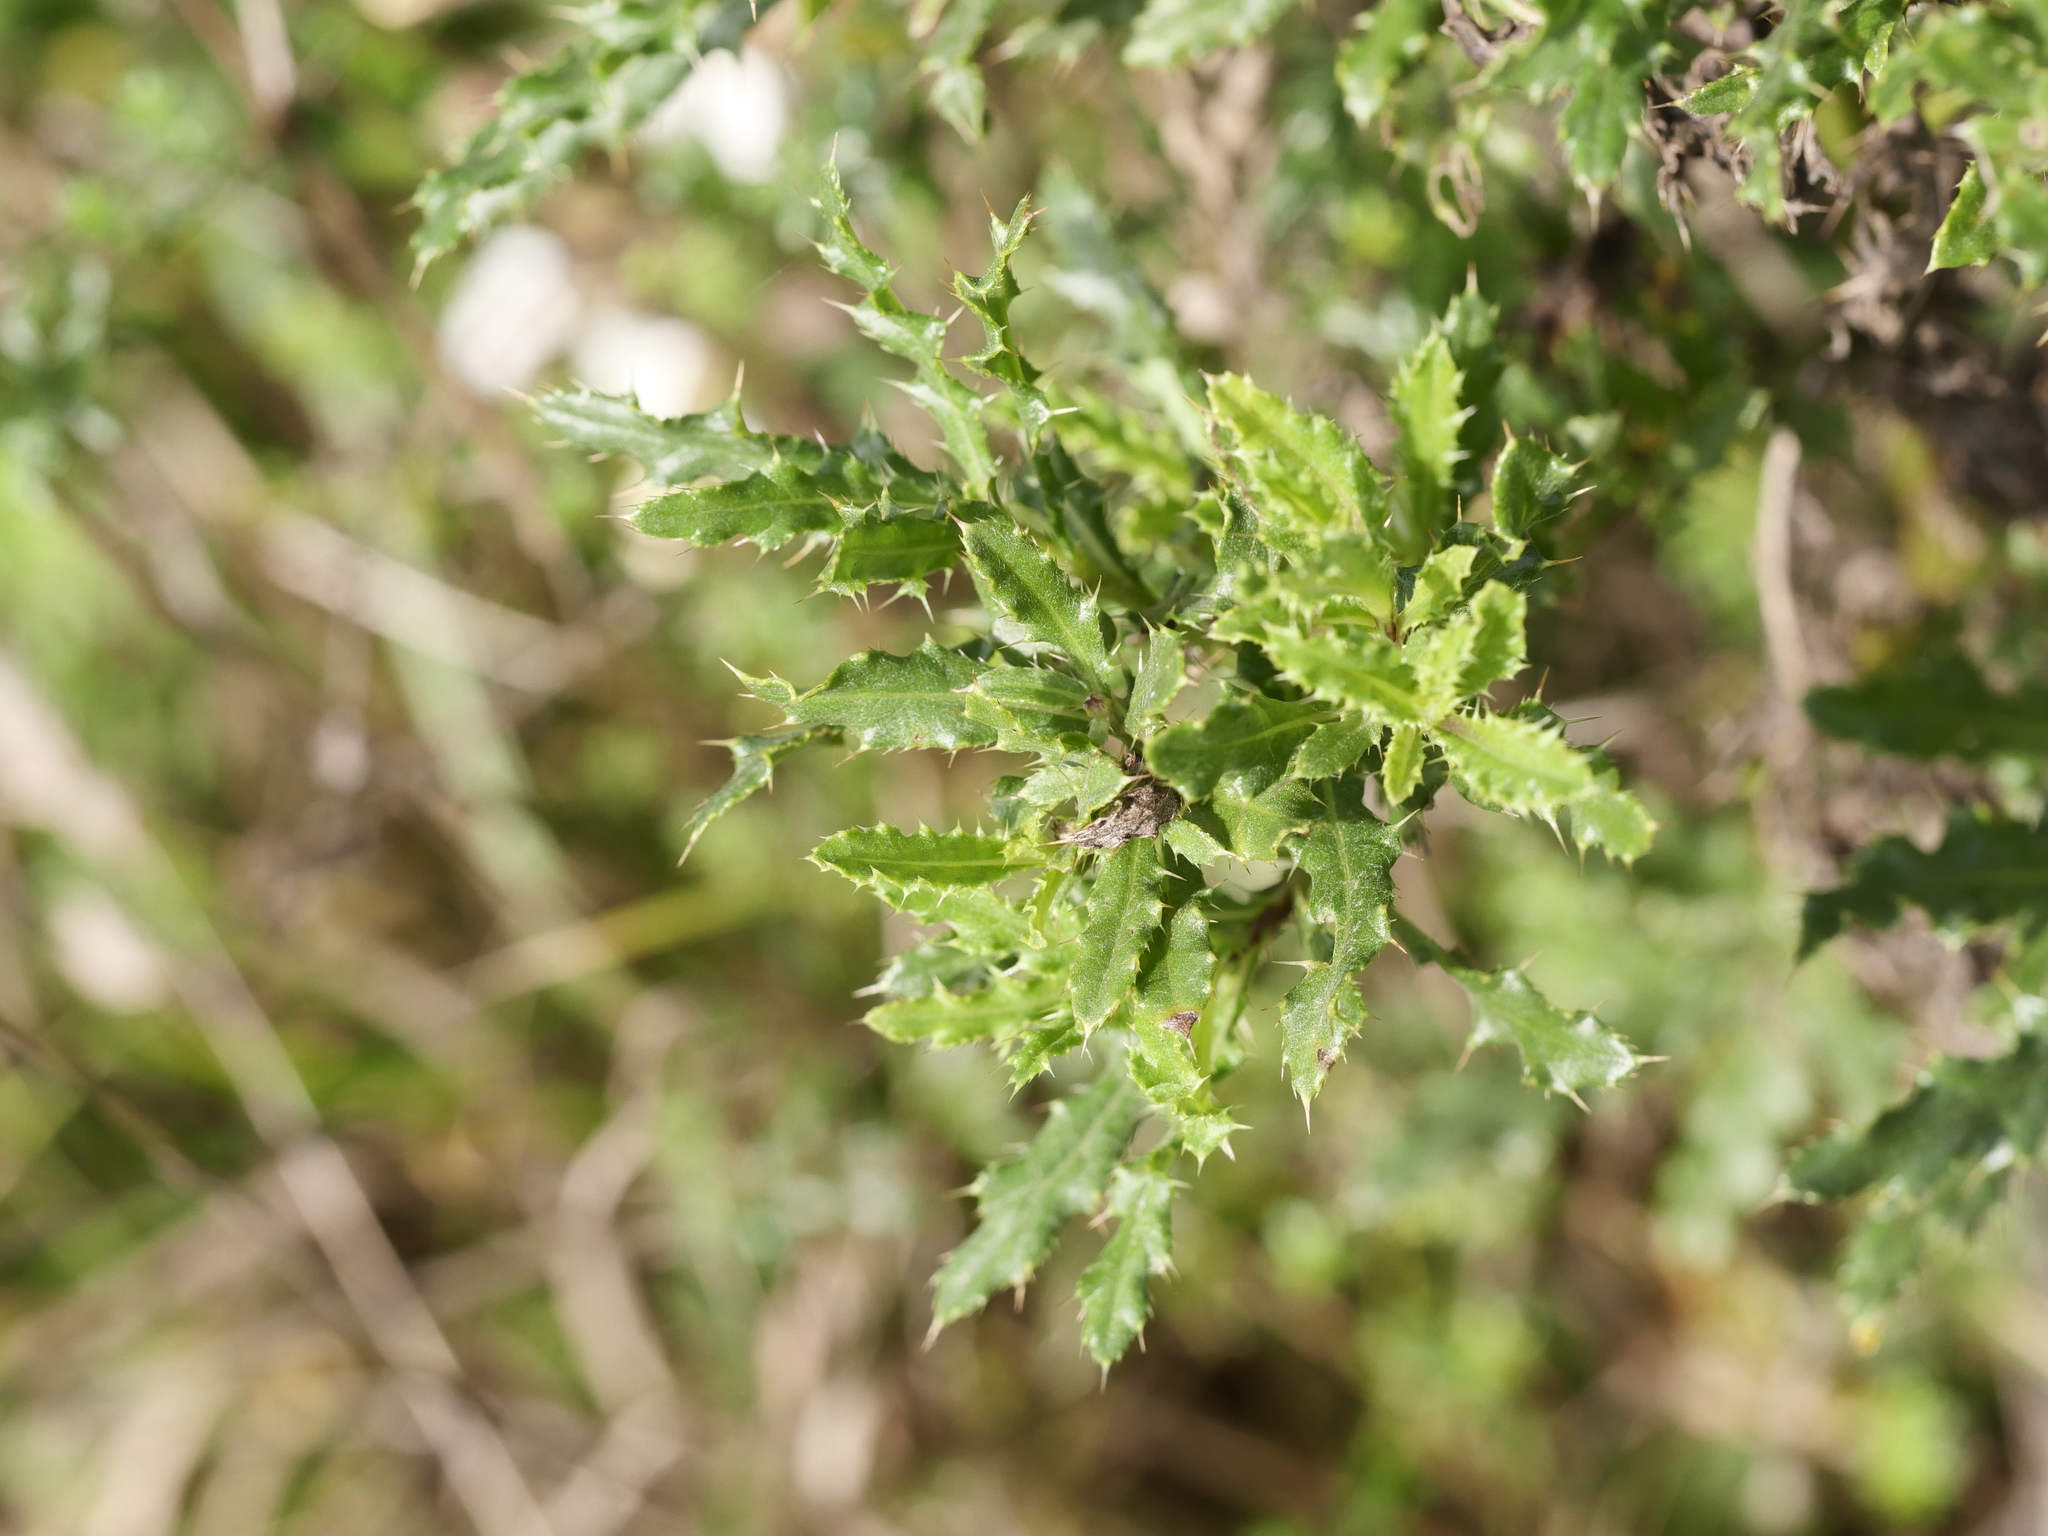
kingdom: Plantae
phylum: Tracheophyta
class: Magnoliopsida
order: Asterales
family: Asteraceae
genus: Cirsium
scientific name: Cirsium arvense
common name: Creeping thistle
